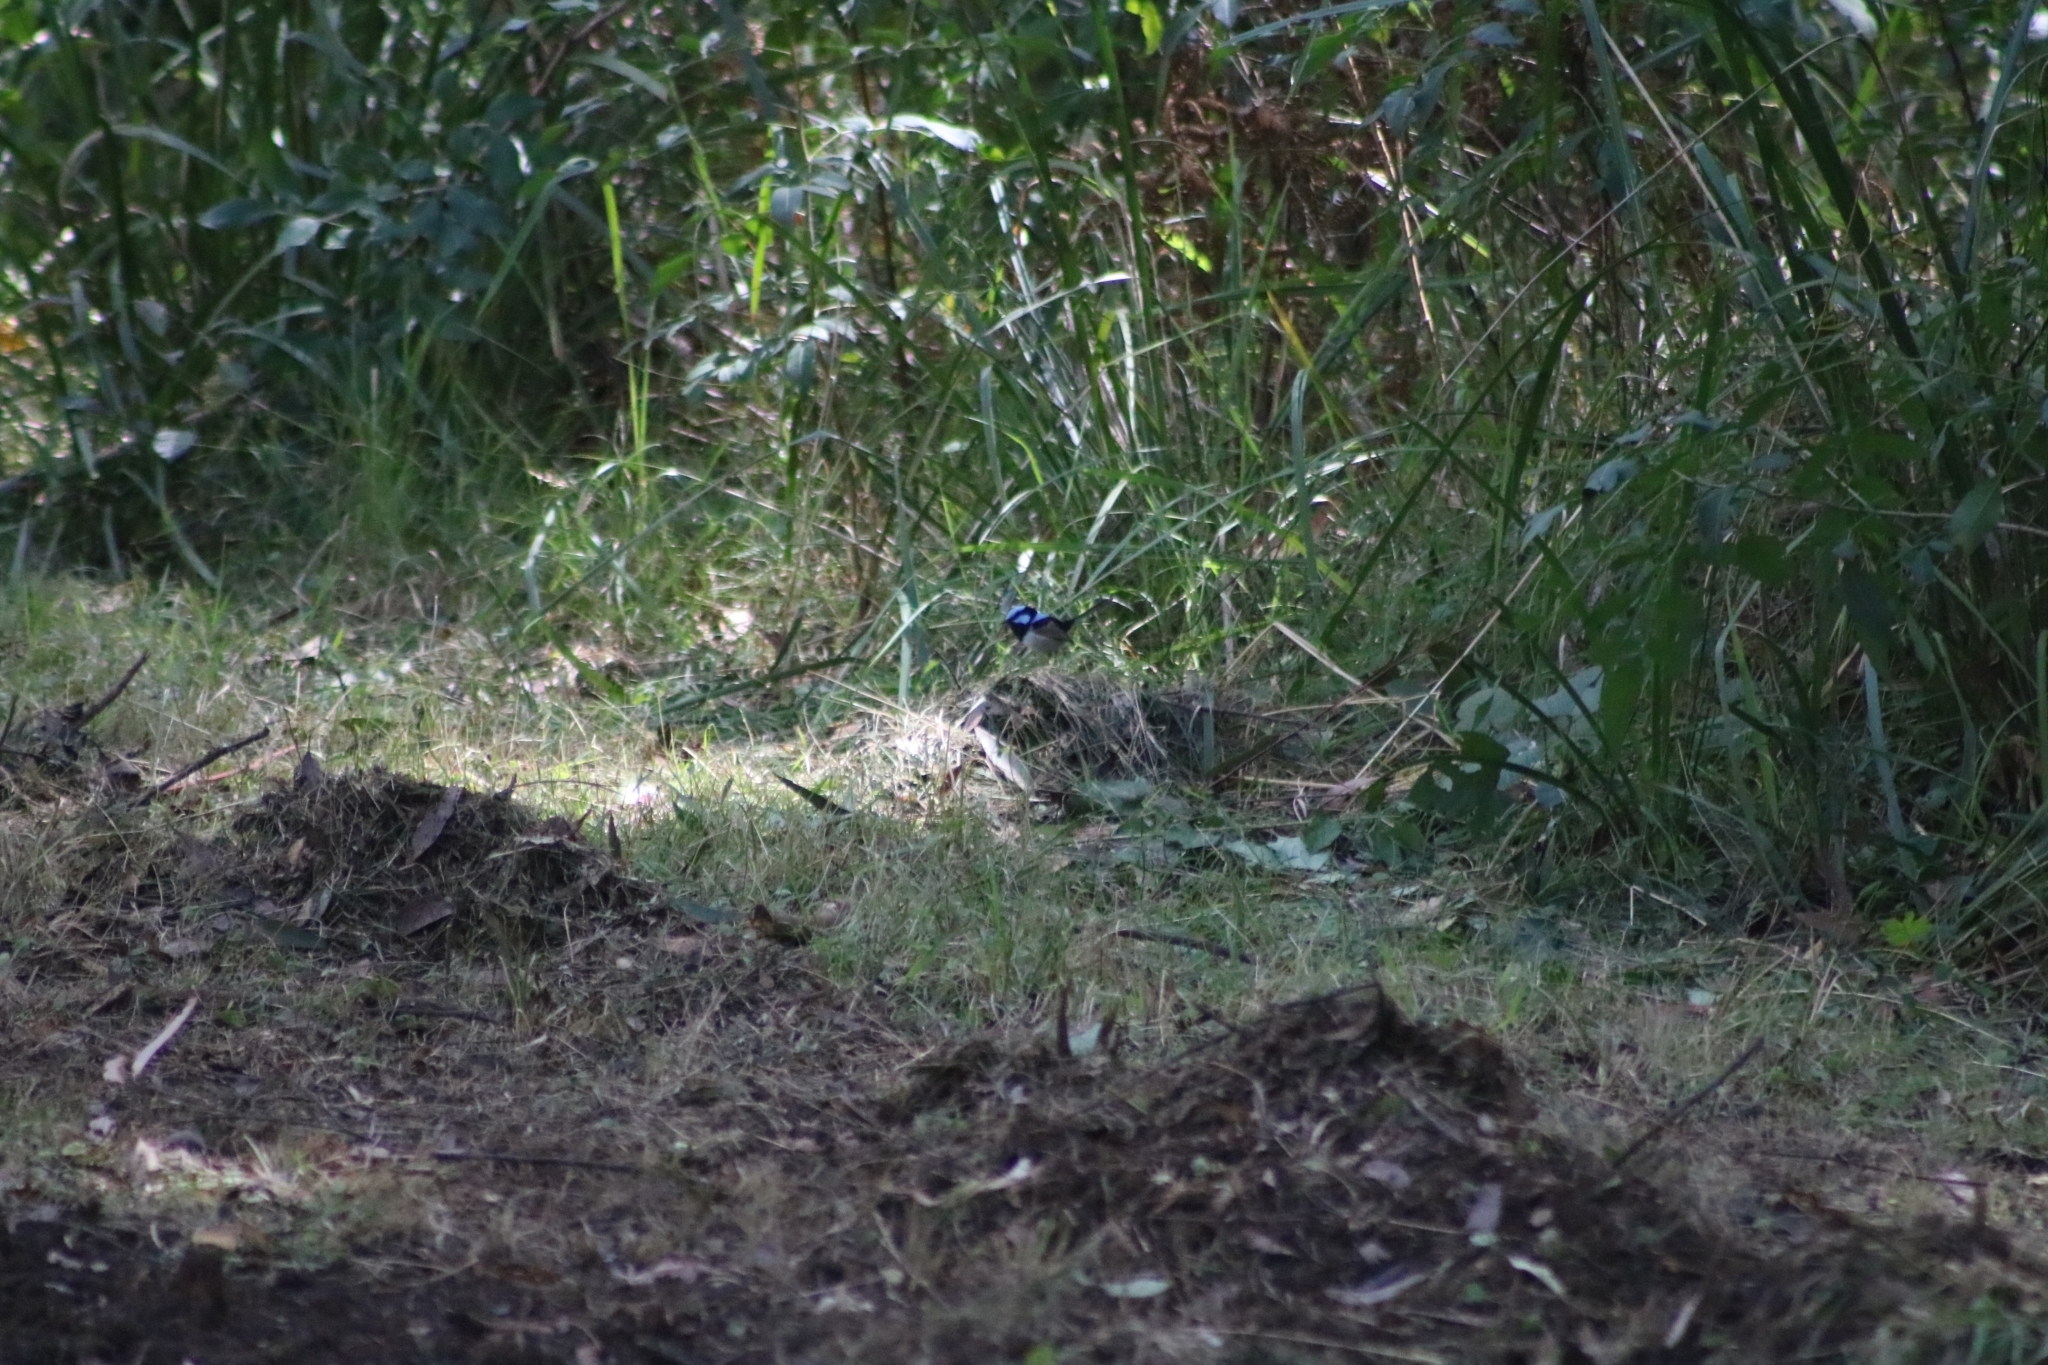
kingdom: Animalia
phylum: Chordata
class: Aves
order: Passeriformes
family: Maluridae
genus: Malurus
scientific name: Malurus cyaneus
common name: Superb fairywren
